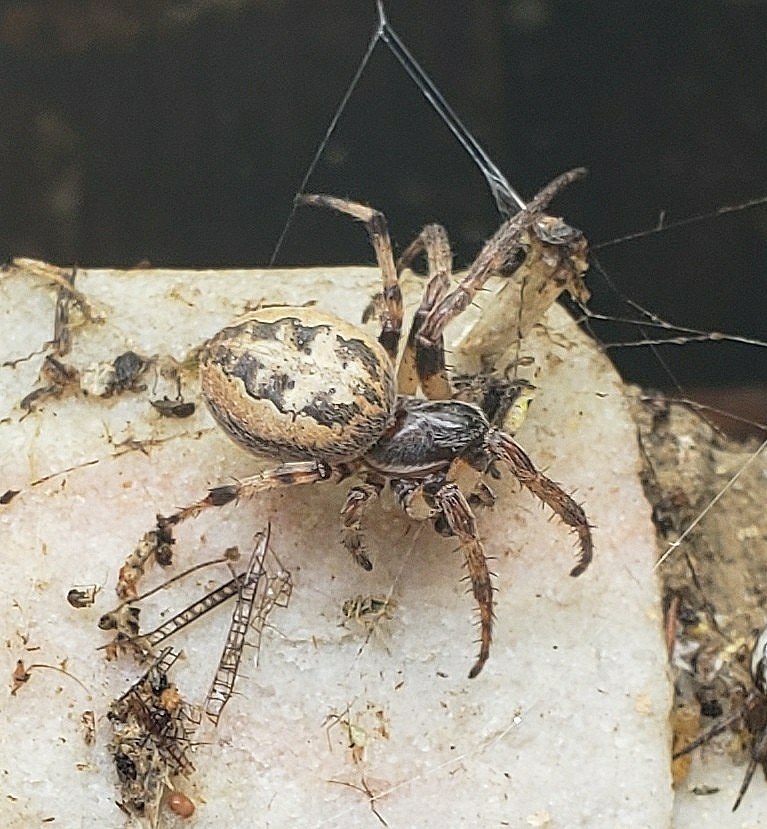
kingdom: Animalia
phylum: Arthropoda
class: Arachnida
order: Araneae
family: Araneidae
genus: Larinioides
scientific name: Larinioides cornutus
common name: Furrow orbweaver
